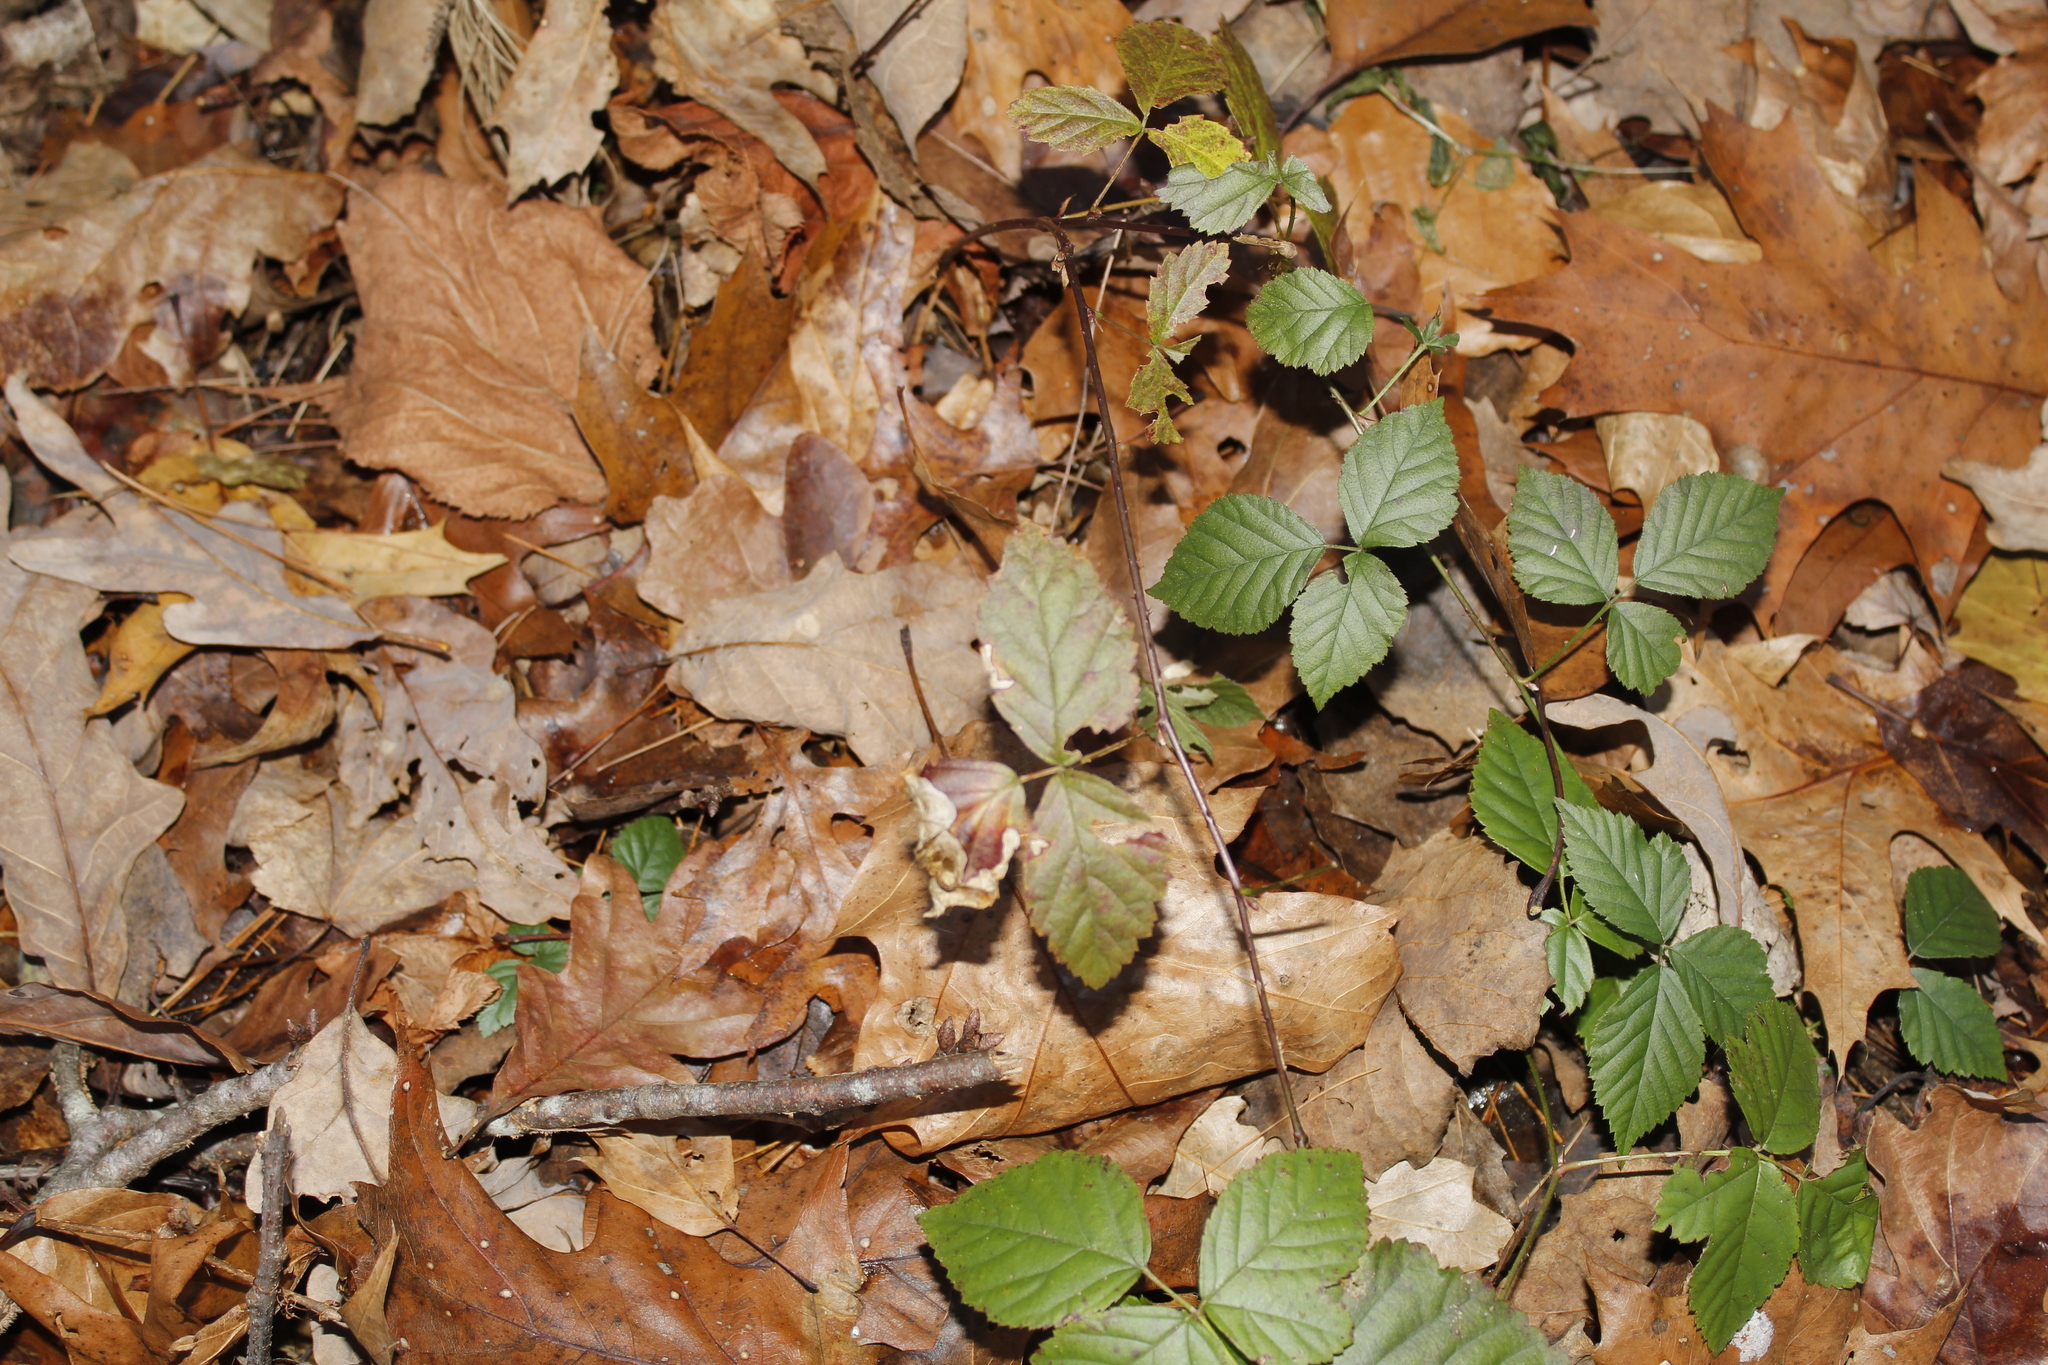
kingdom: Plantae
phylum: Tracheophyta
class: Magnoliopsida
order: Rosales
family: Rosaceae
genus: Rubus
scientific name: Rubus
